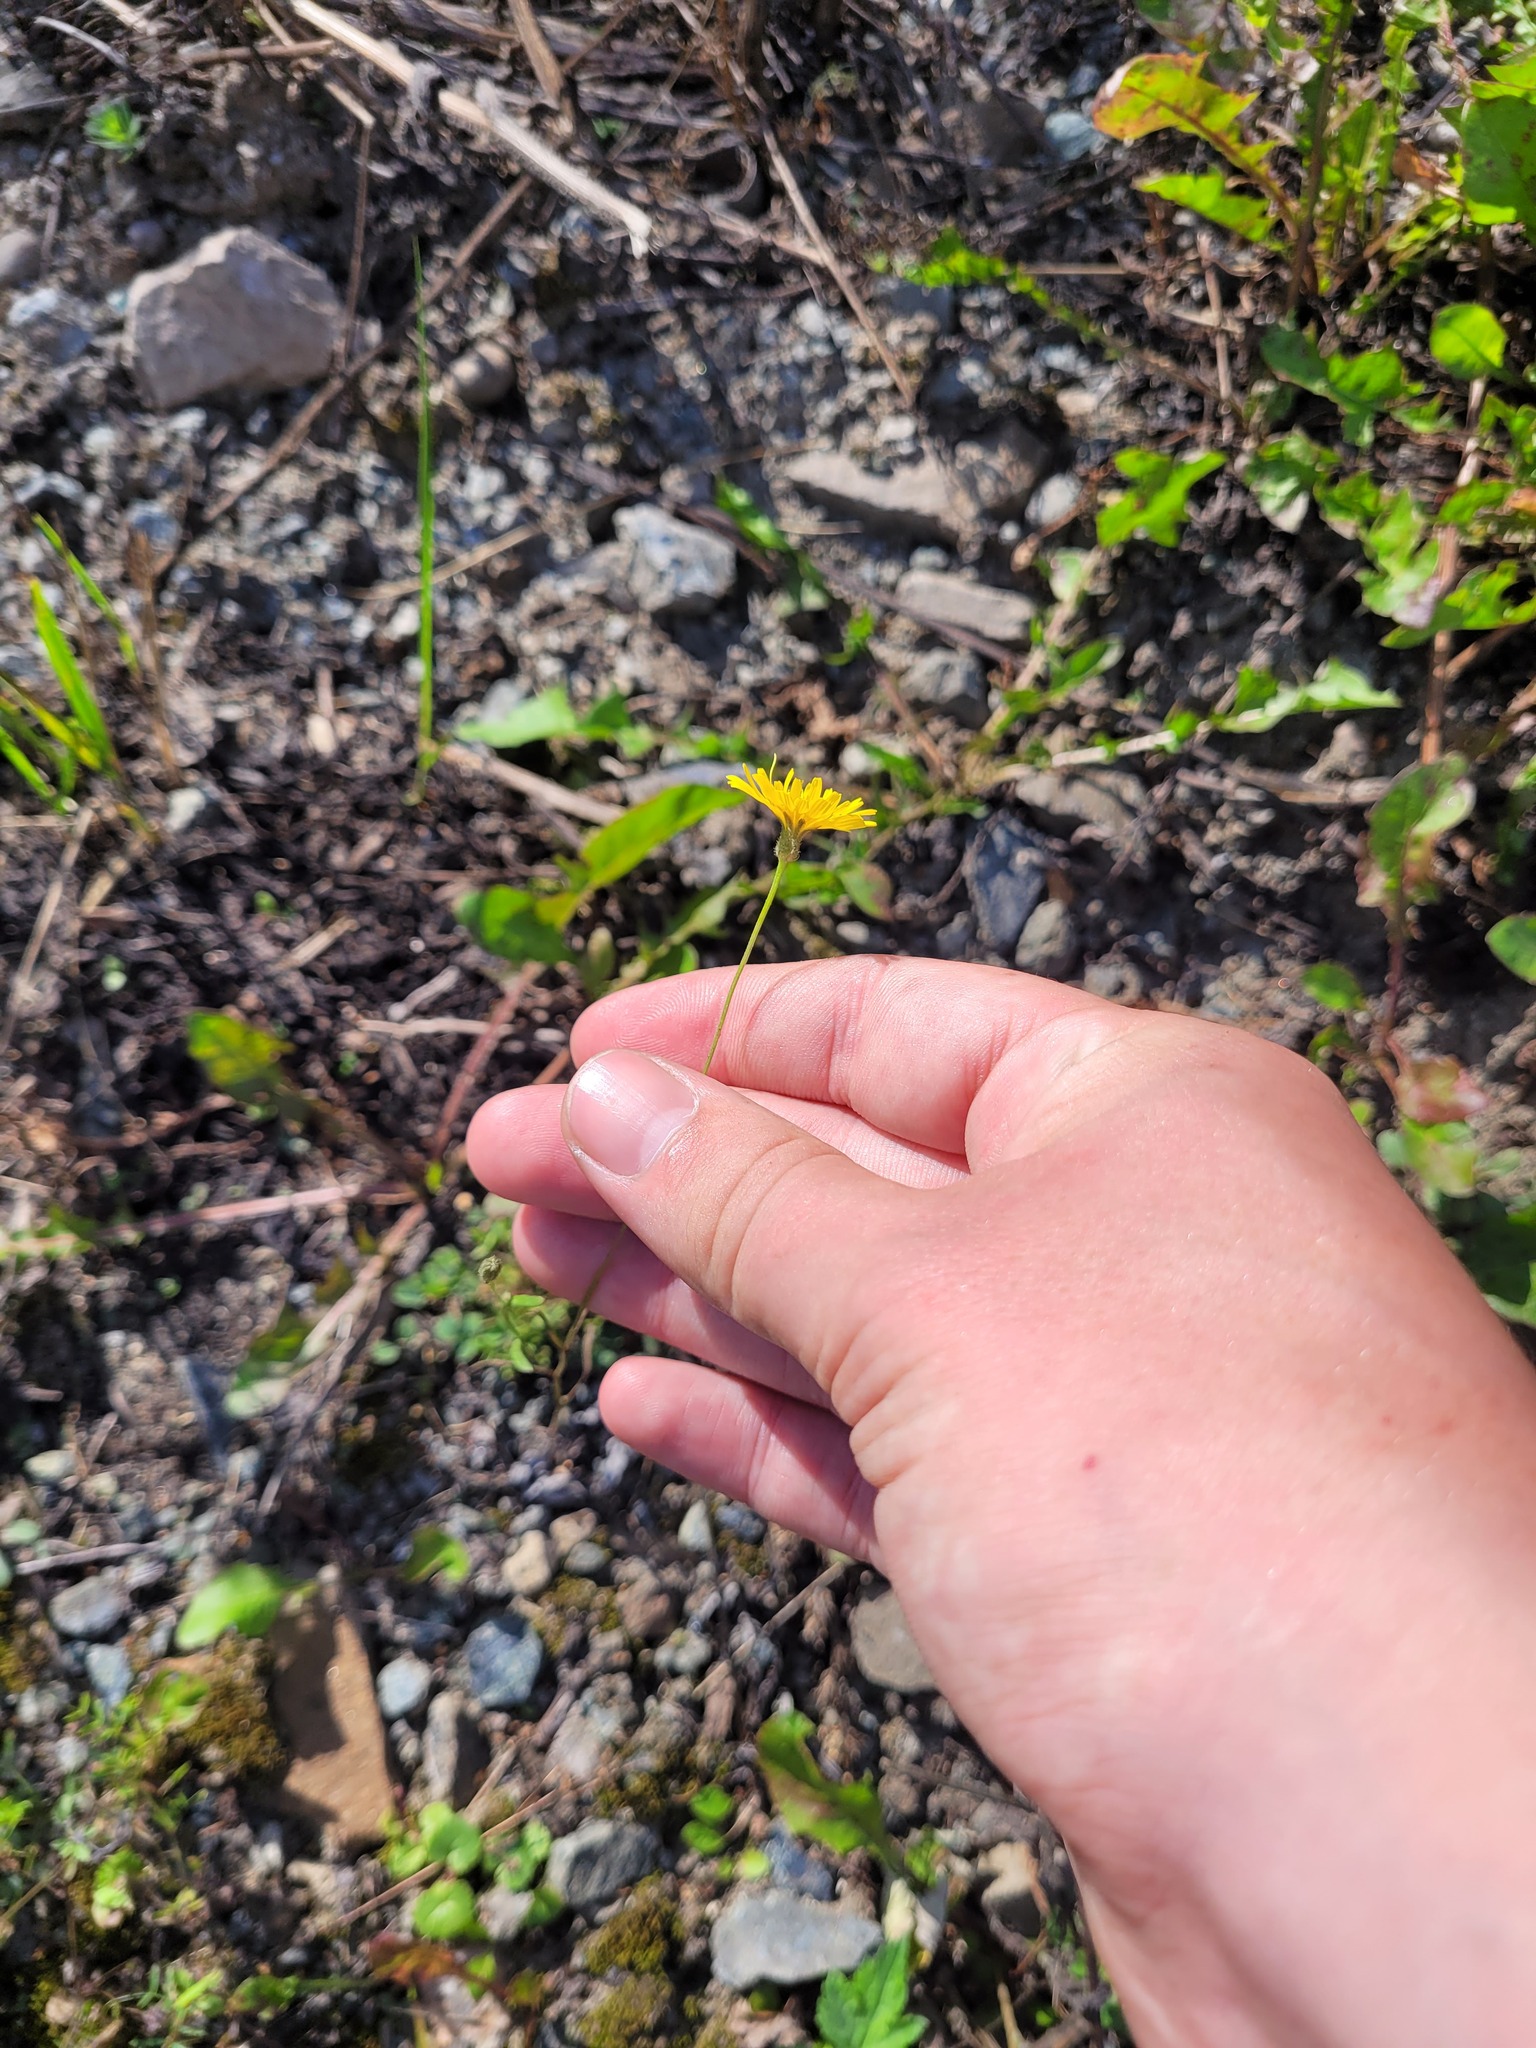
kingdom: Plantae
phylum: Tracheophyta
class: Magnoliopsida
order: Asterales
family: Asteraceae
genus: Crepis
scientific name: Crepis tectorum
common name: Narrow-leaved hawk's-beard
